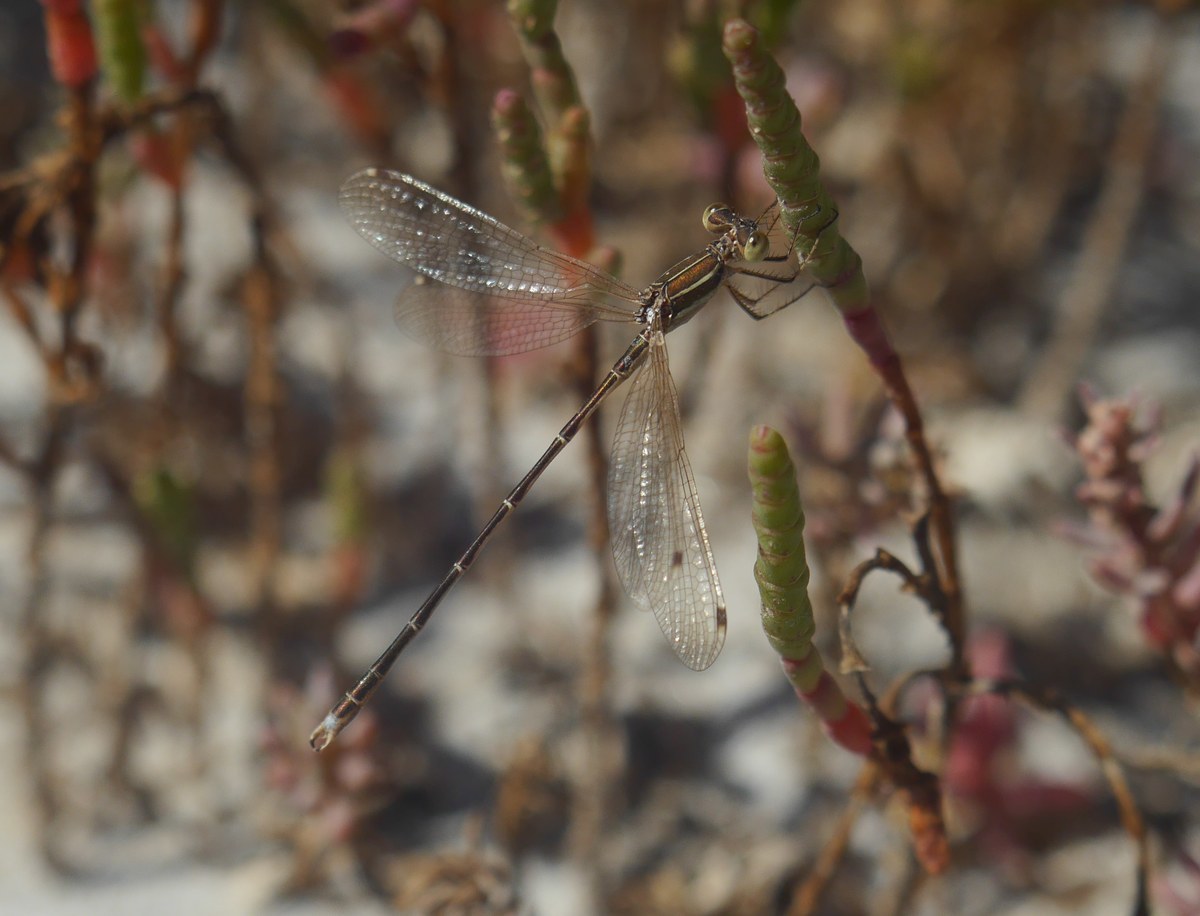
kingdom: Animalia
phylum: Arthropoda
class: Insecta
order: Odonata
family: Lestidae
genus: Lestes
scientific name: Lestes barbarus
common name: Migrant spreadwing
